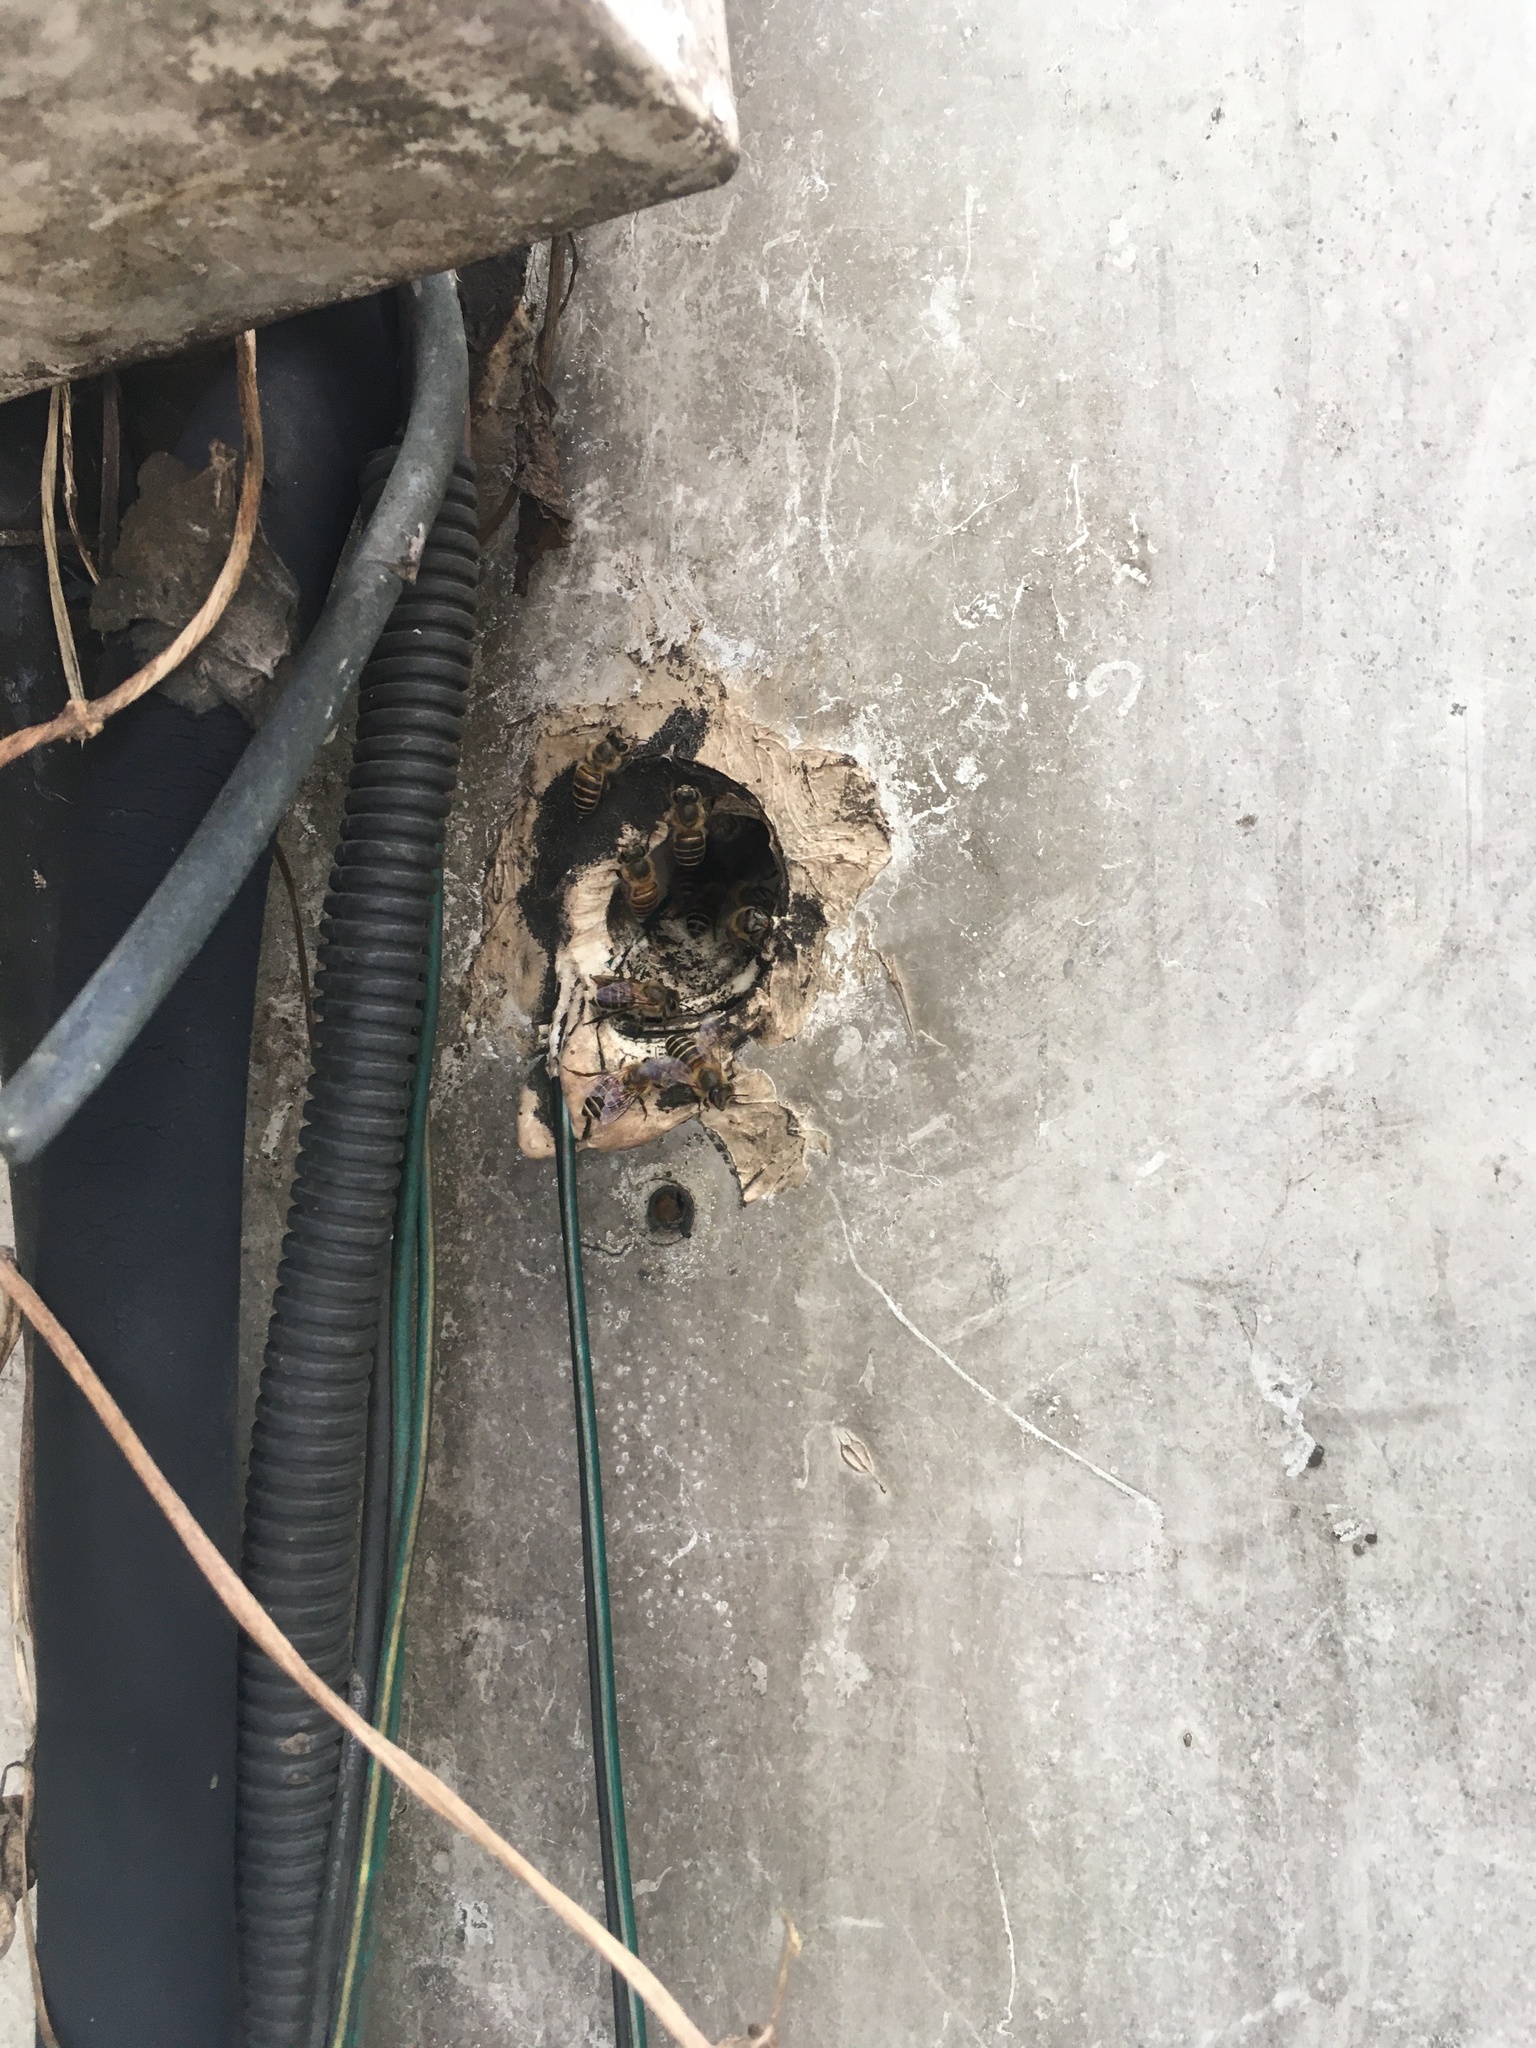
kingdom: Animalia
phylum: Arthropoda
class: Insecta
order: Hymenoptera
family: Apidae
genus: Apis
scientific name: Apis cerana
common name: Honey bee
